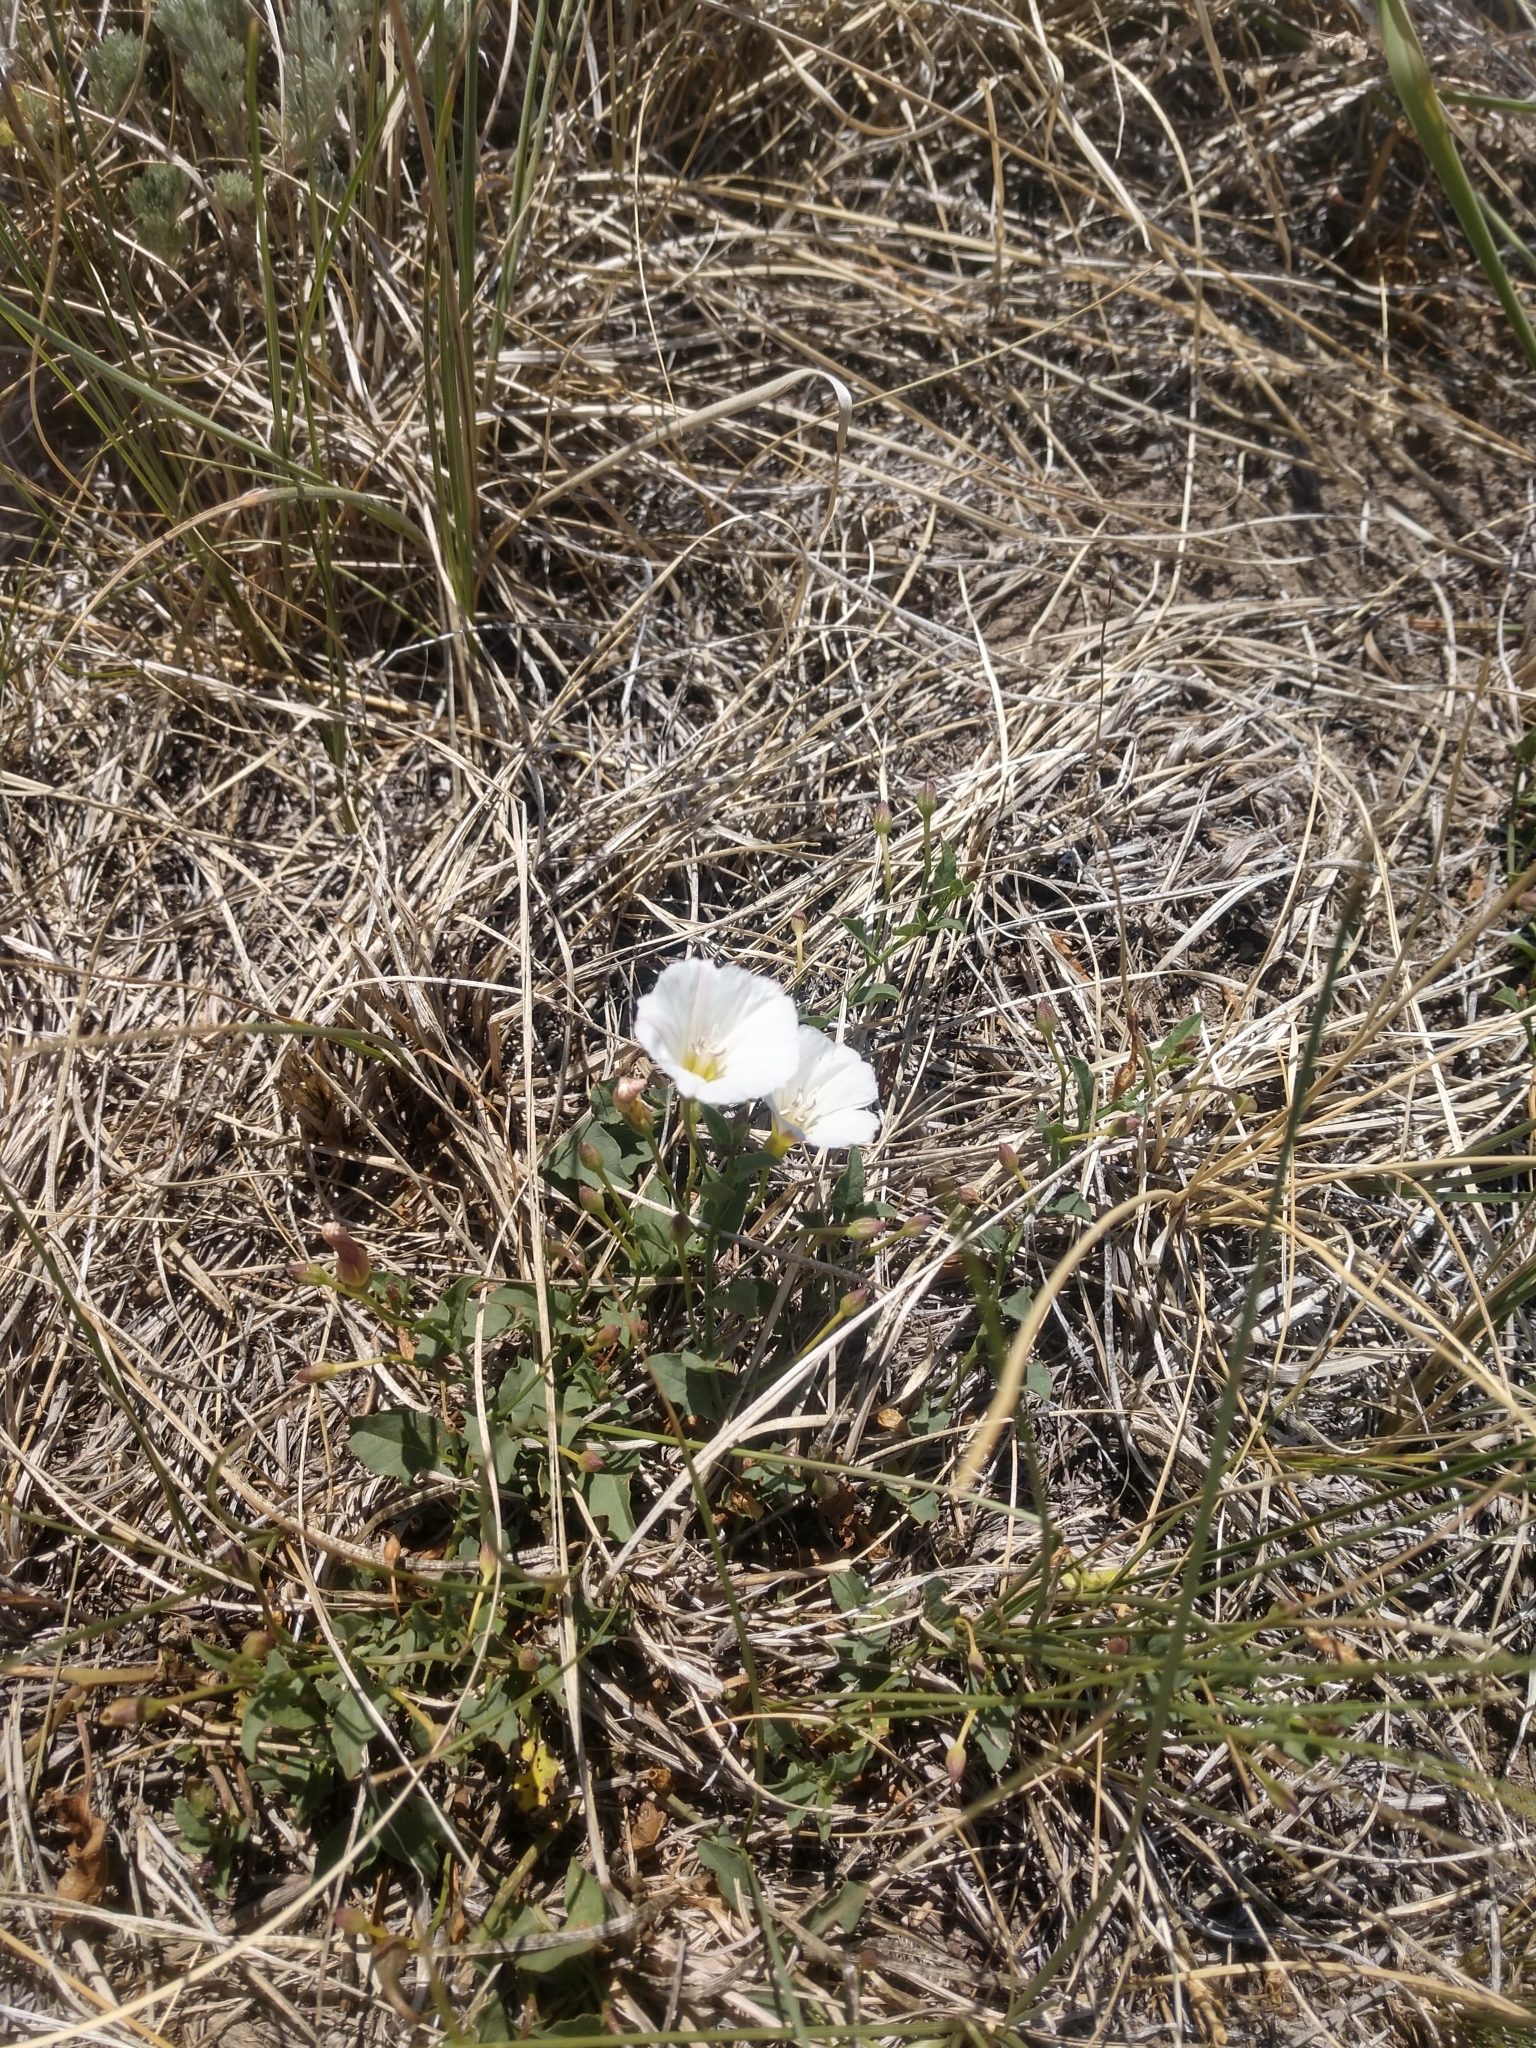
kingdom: Plantae
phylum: Tracheophyta
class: Magnoliopsida
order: Solanales
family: Convolvulaceae
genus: Convolvulus
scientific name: Convolvulus arvensis
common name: Field bindweed
